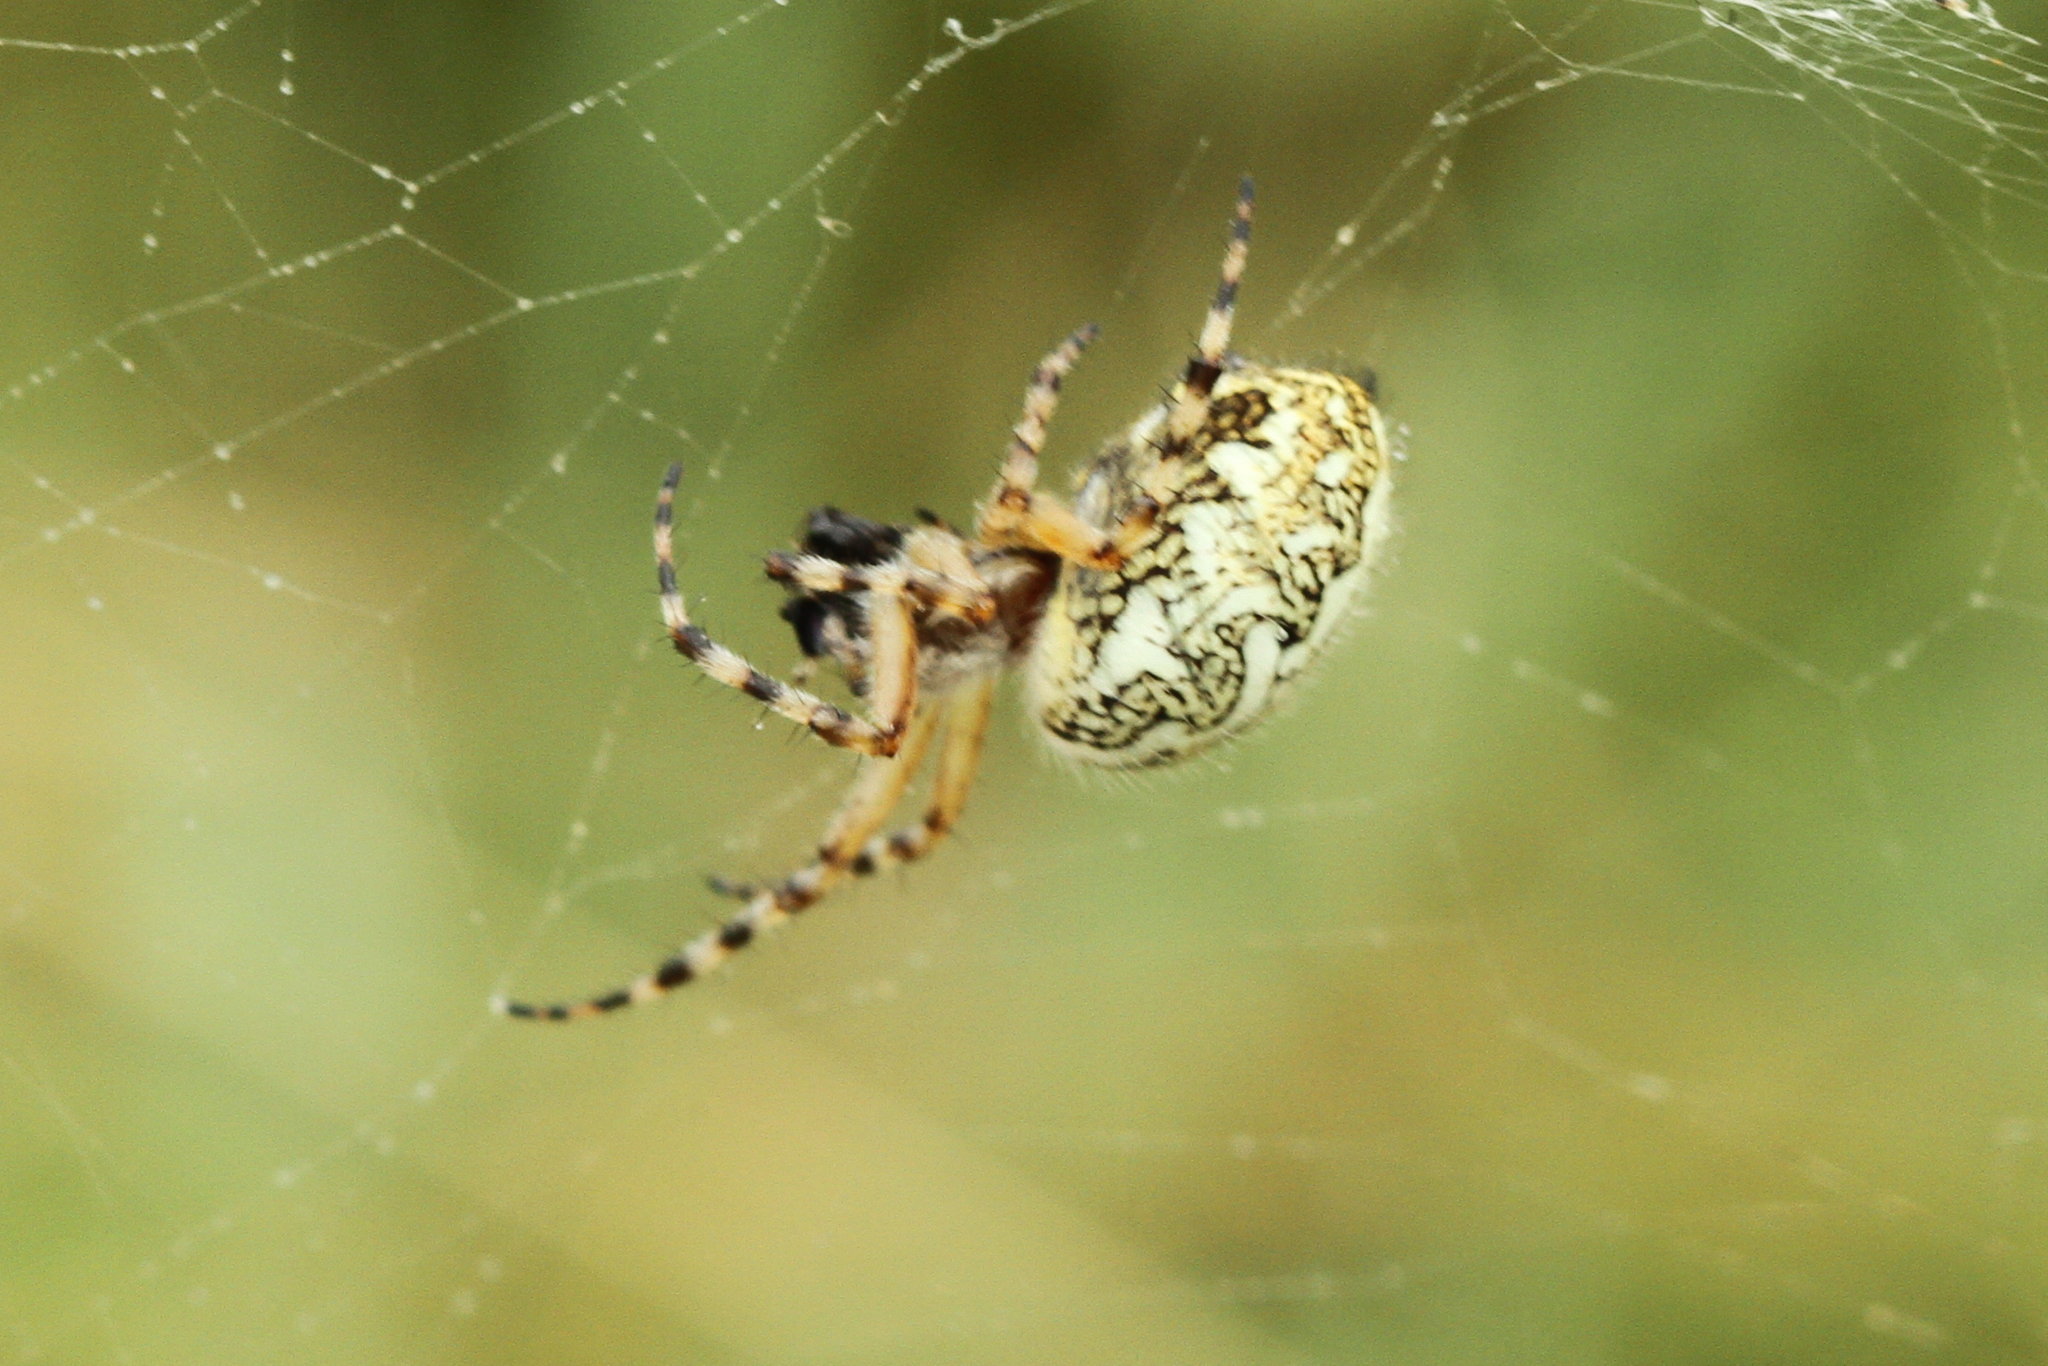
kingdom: Animalia
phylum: Arthropoda
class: Arachnida
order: Araneae
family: Araneidae
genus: Aculepeira
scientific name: Aculepeira ceropegia
